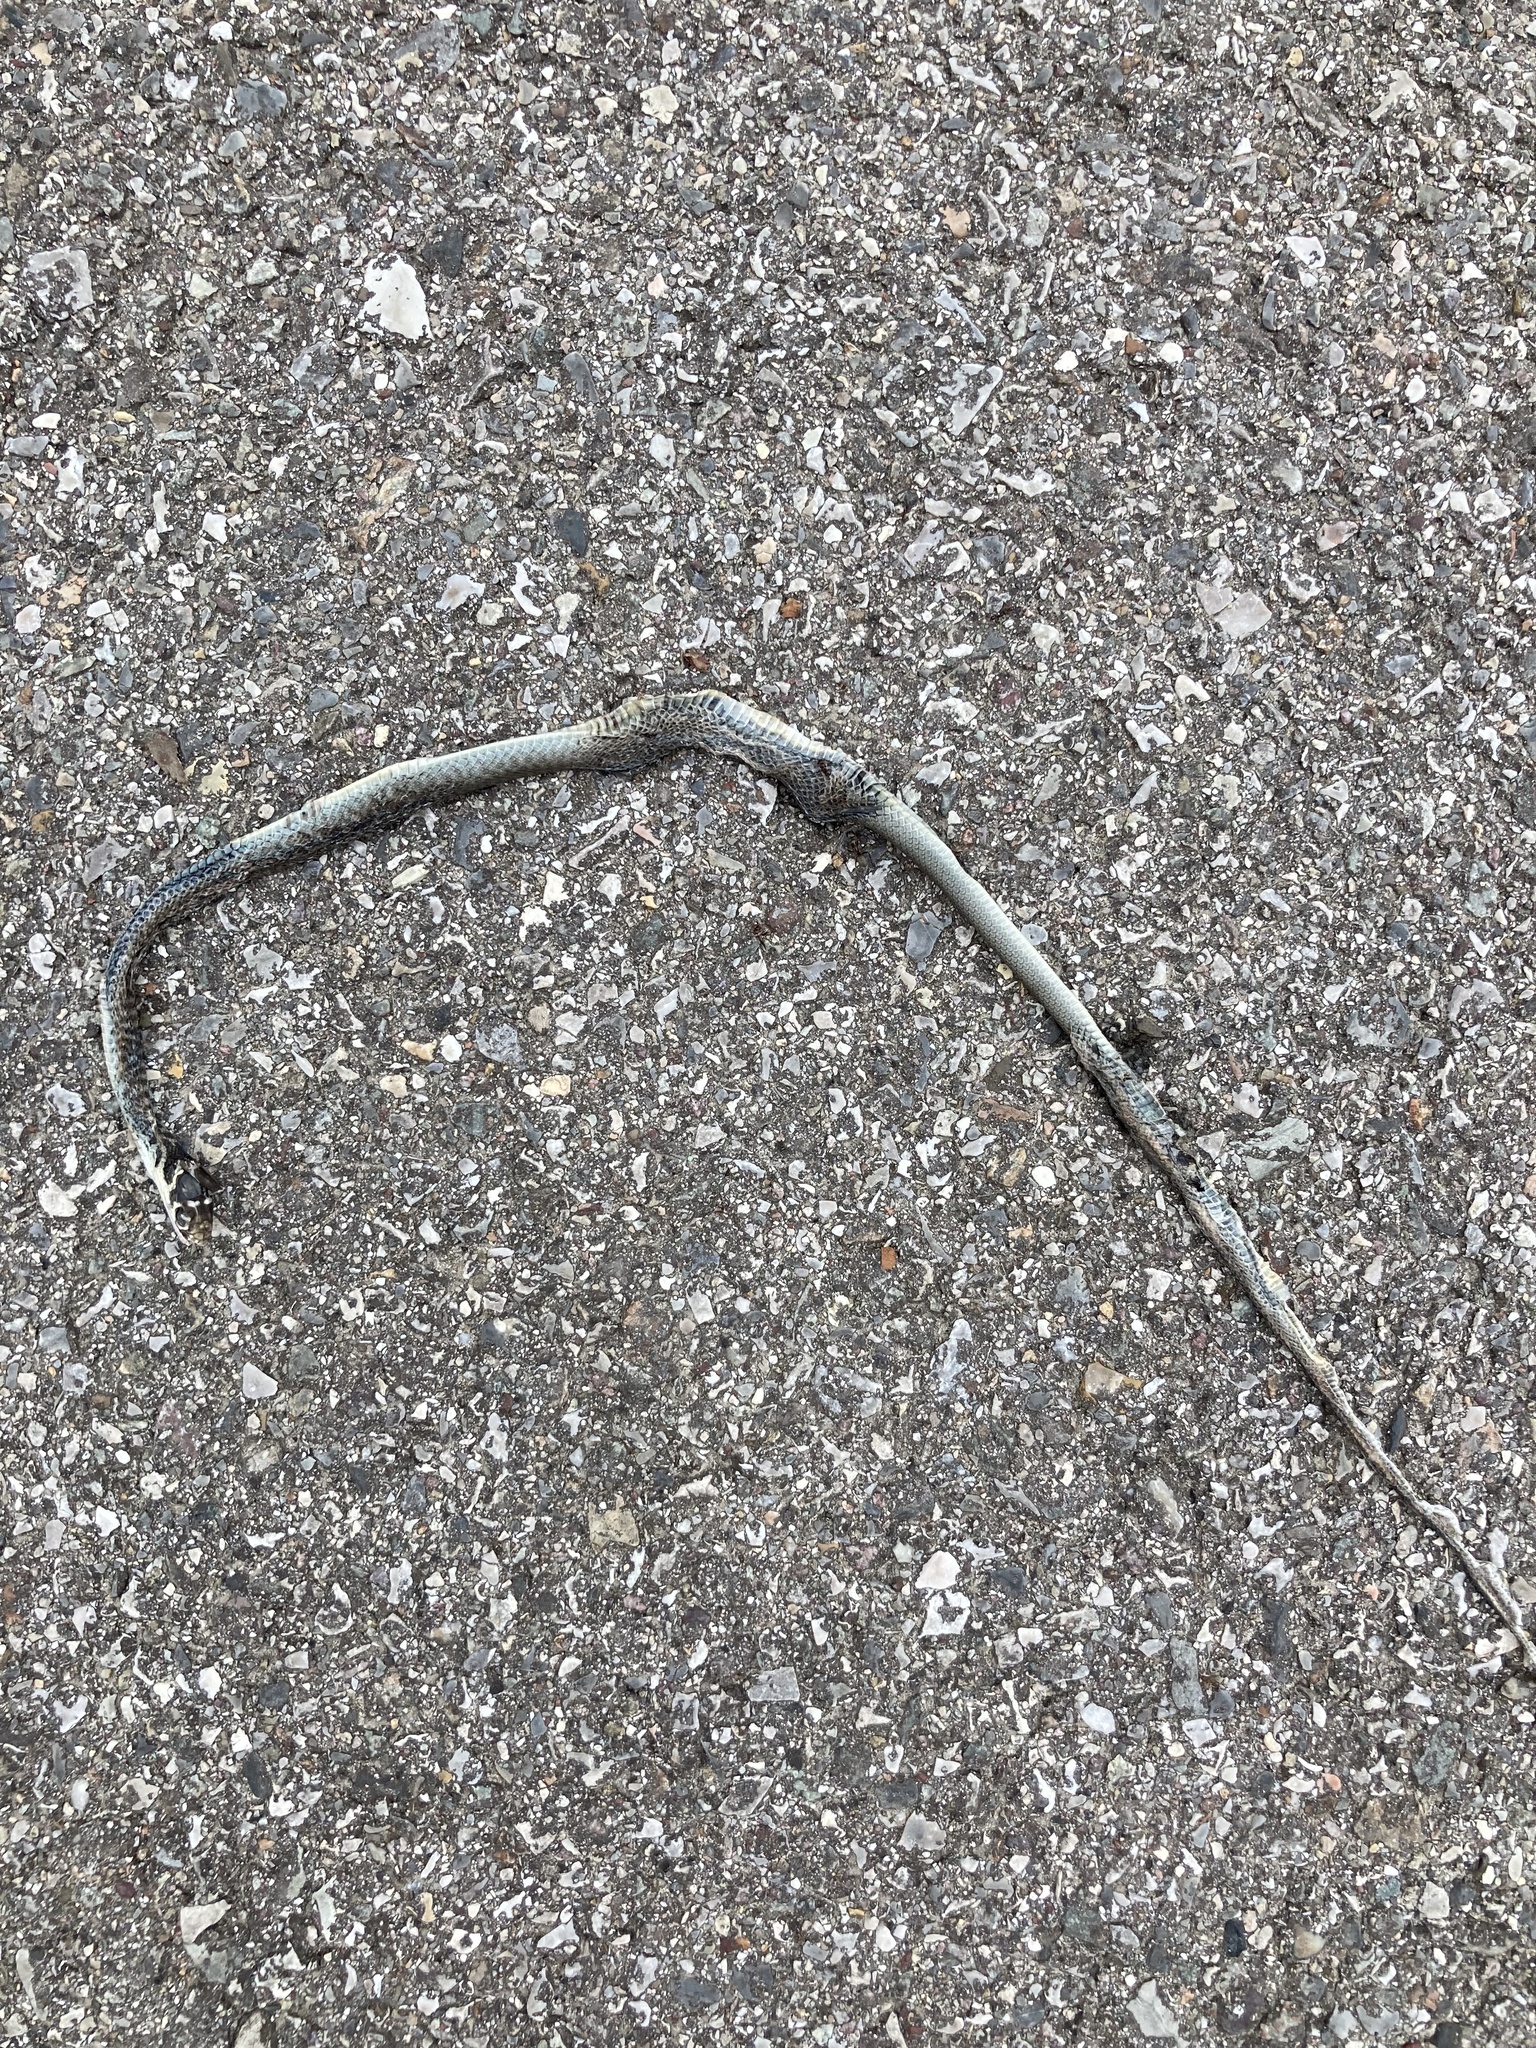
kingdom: Animalia
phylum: Chordata
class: Squamata
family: Colubridae
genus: Hierophis
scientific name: Hierophis viridiflavus
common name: Green whip snake
